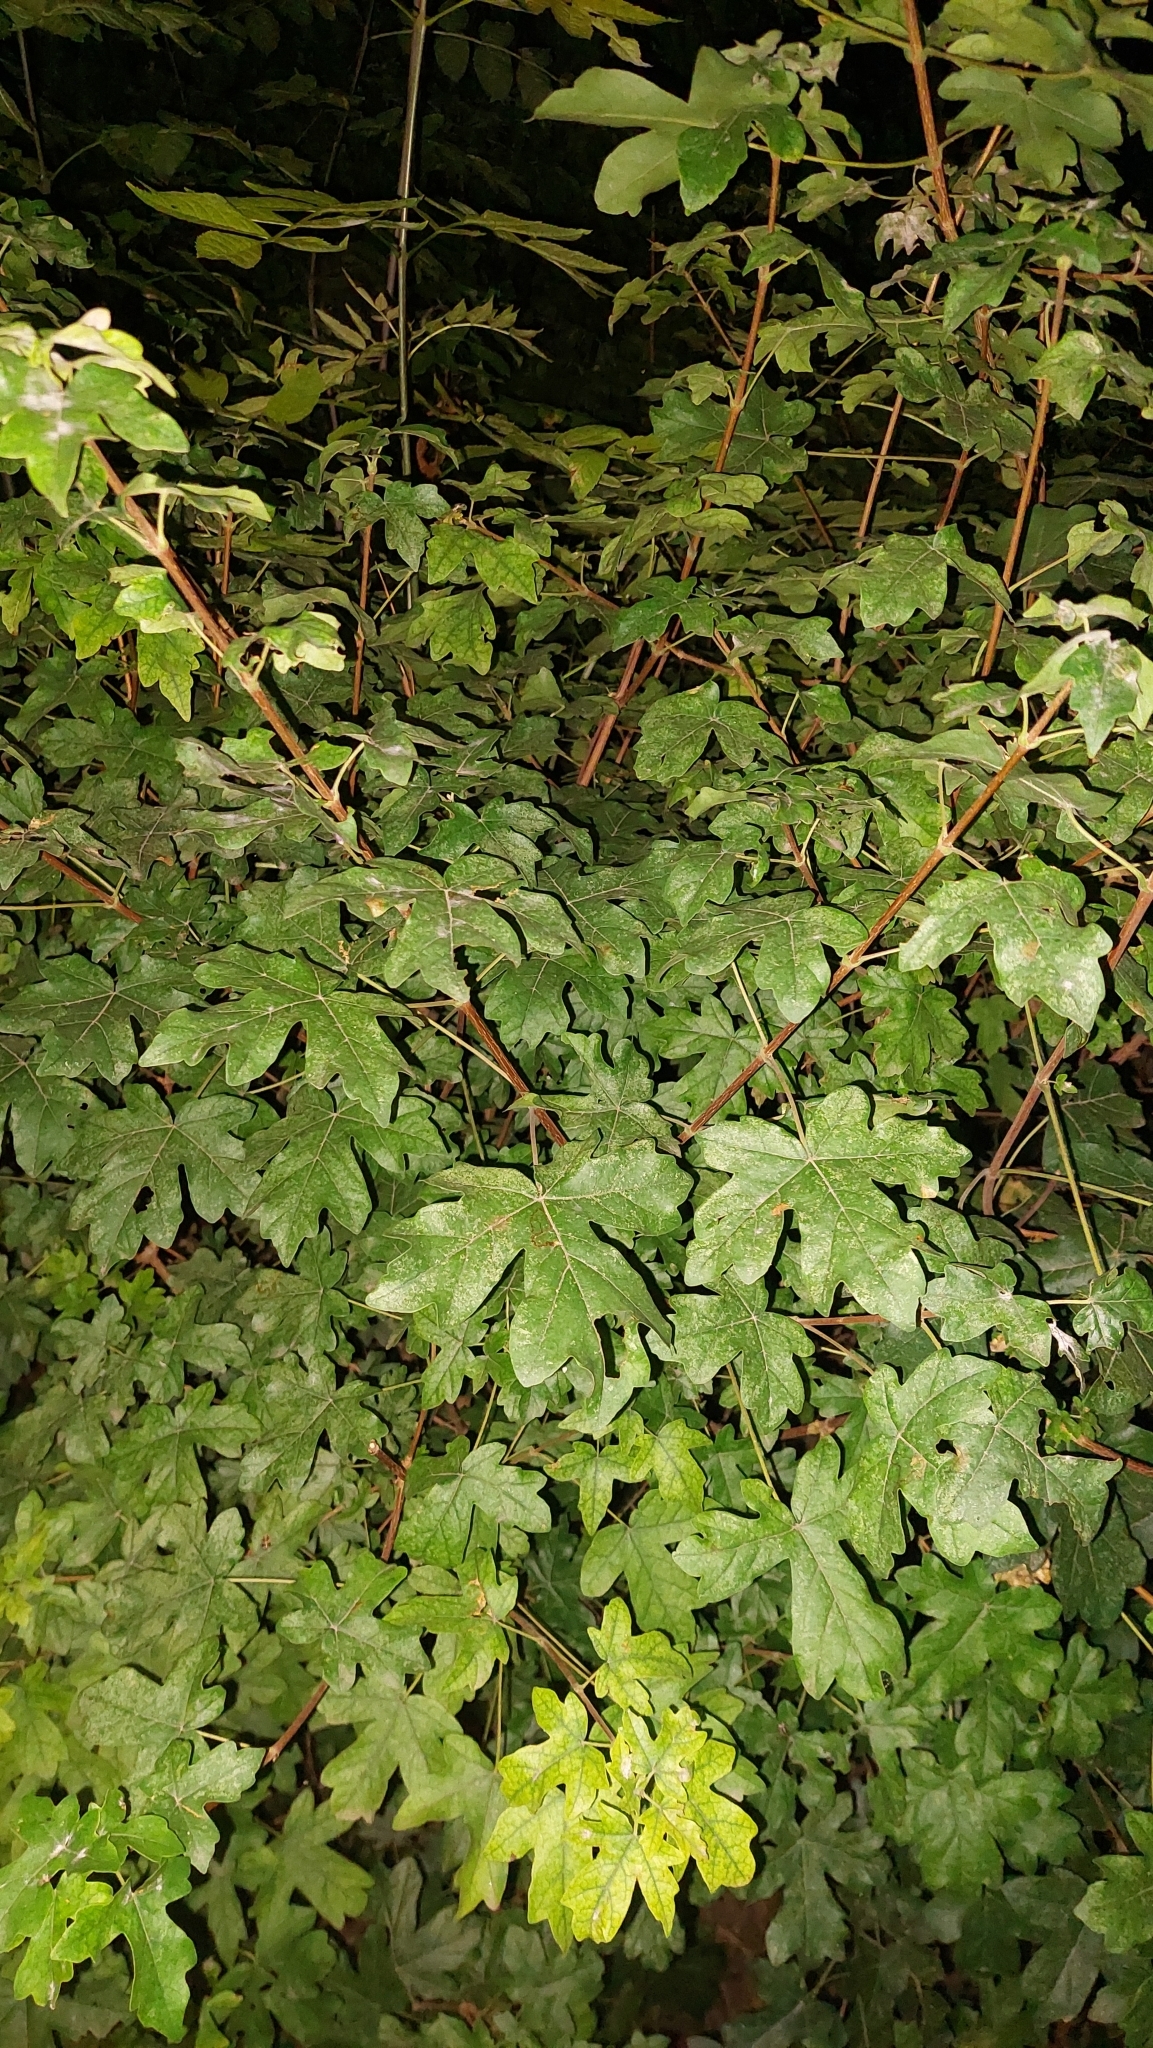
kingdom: Plantae
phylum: Tracheophyta
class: Magnoliopsida
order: Sapindales
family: Sapindaceae
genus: Acer
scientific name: Acer campestre
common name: Field maple
